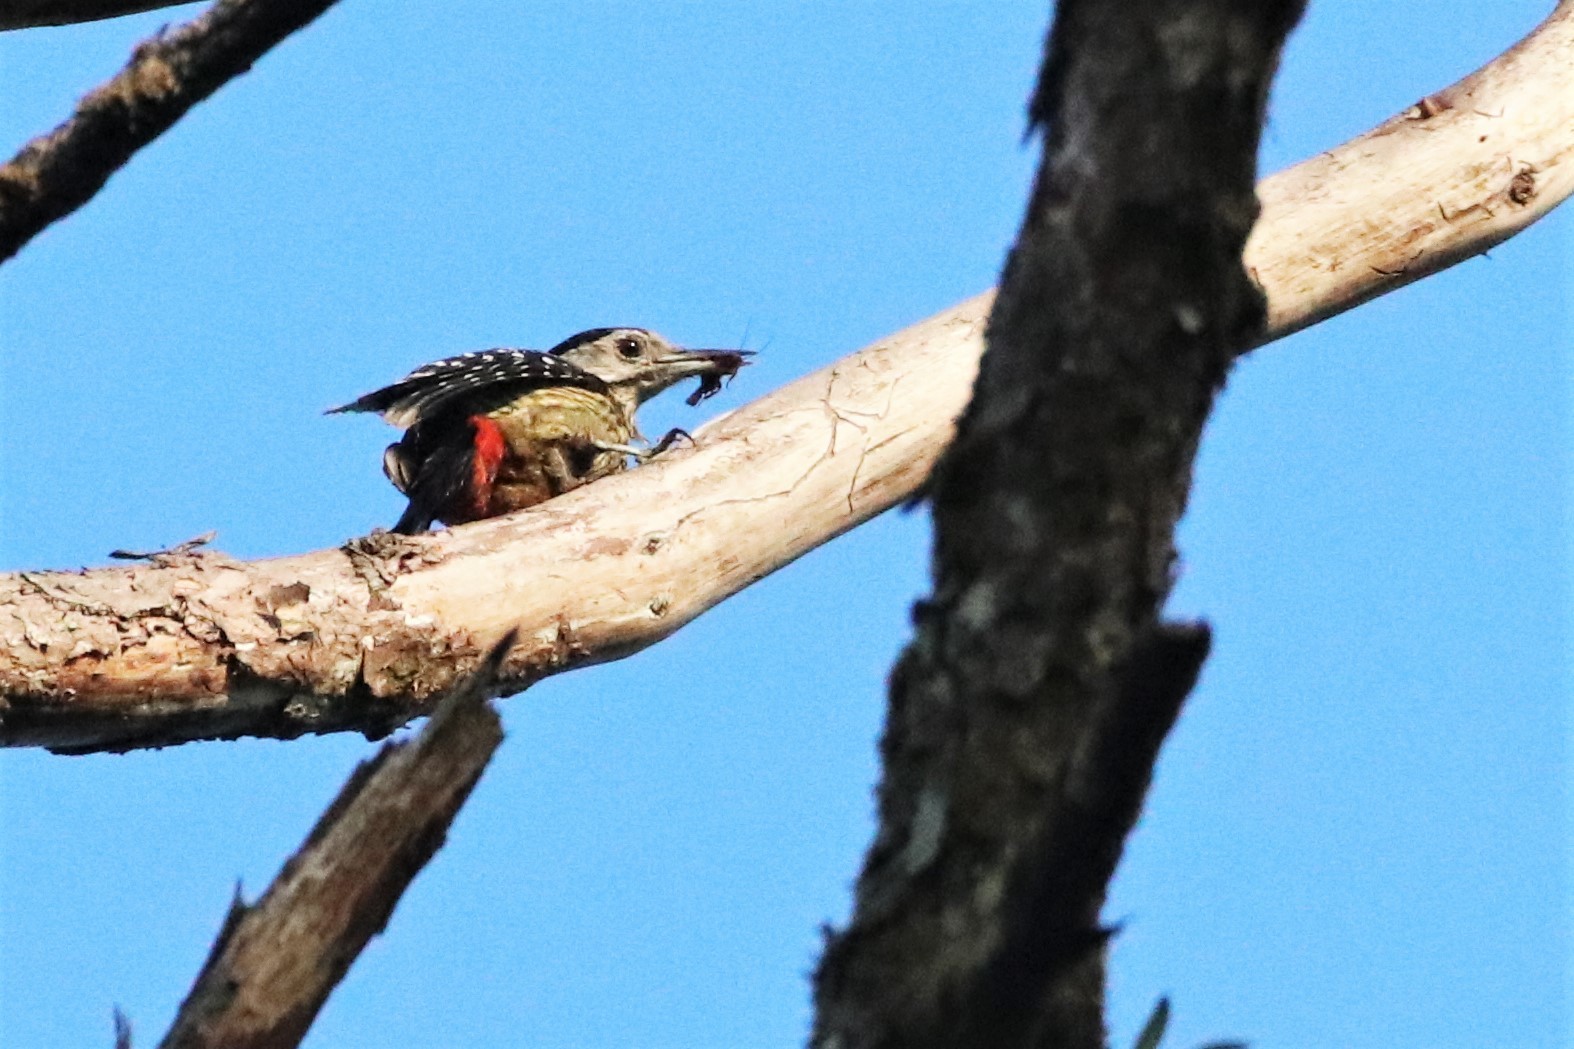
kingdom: Animalia
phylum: Chordata
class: Aves
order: Piciformes
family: Picidae
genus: Dendrocopos
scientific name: Dendrocopos atratus
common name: Stripe-breasted woodpecker
